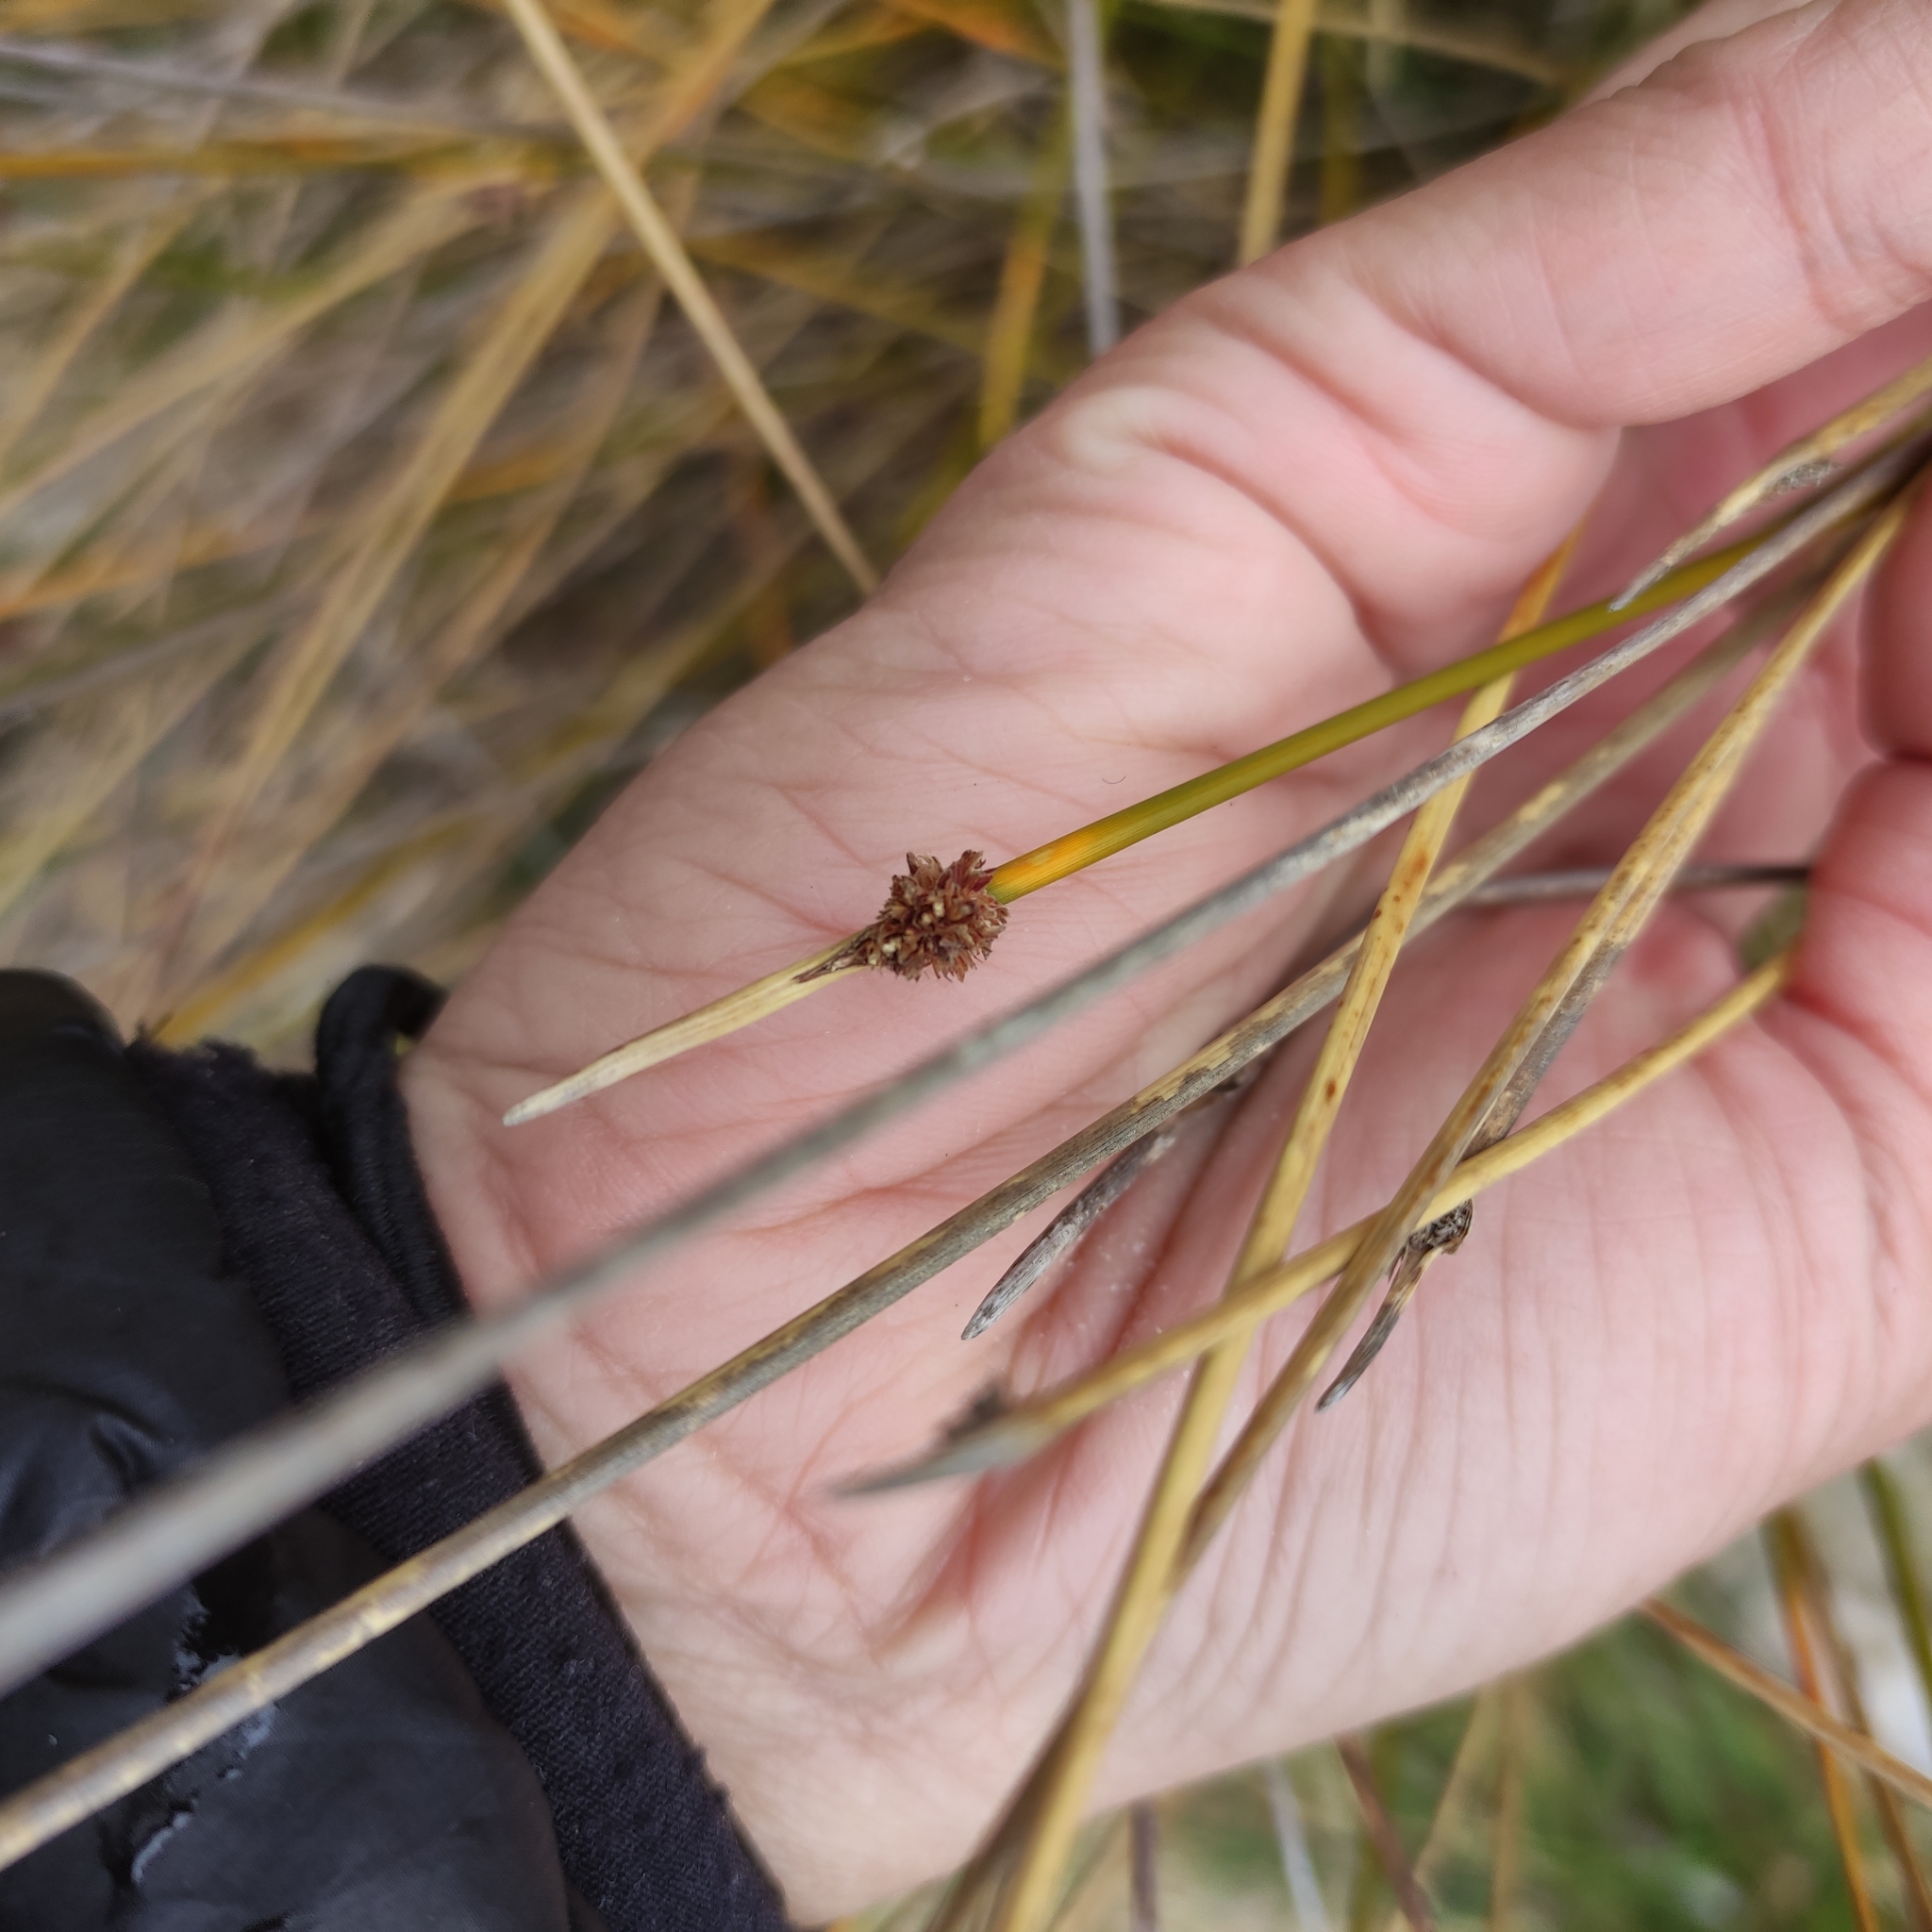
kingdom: Plantae
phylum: Tracheophyta
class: Liliopsida
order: Poales
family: Cyperaceae
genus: Ficinia
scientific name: Ficinia nodosa
